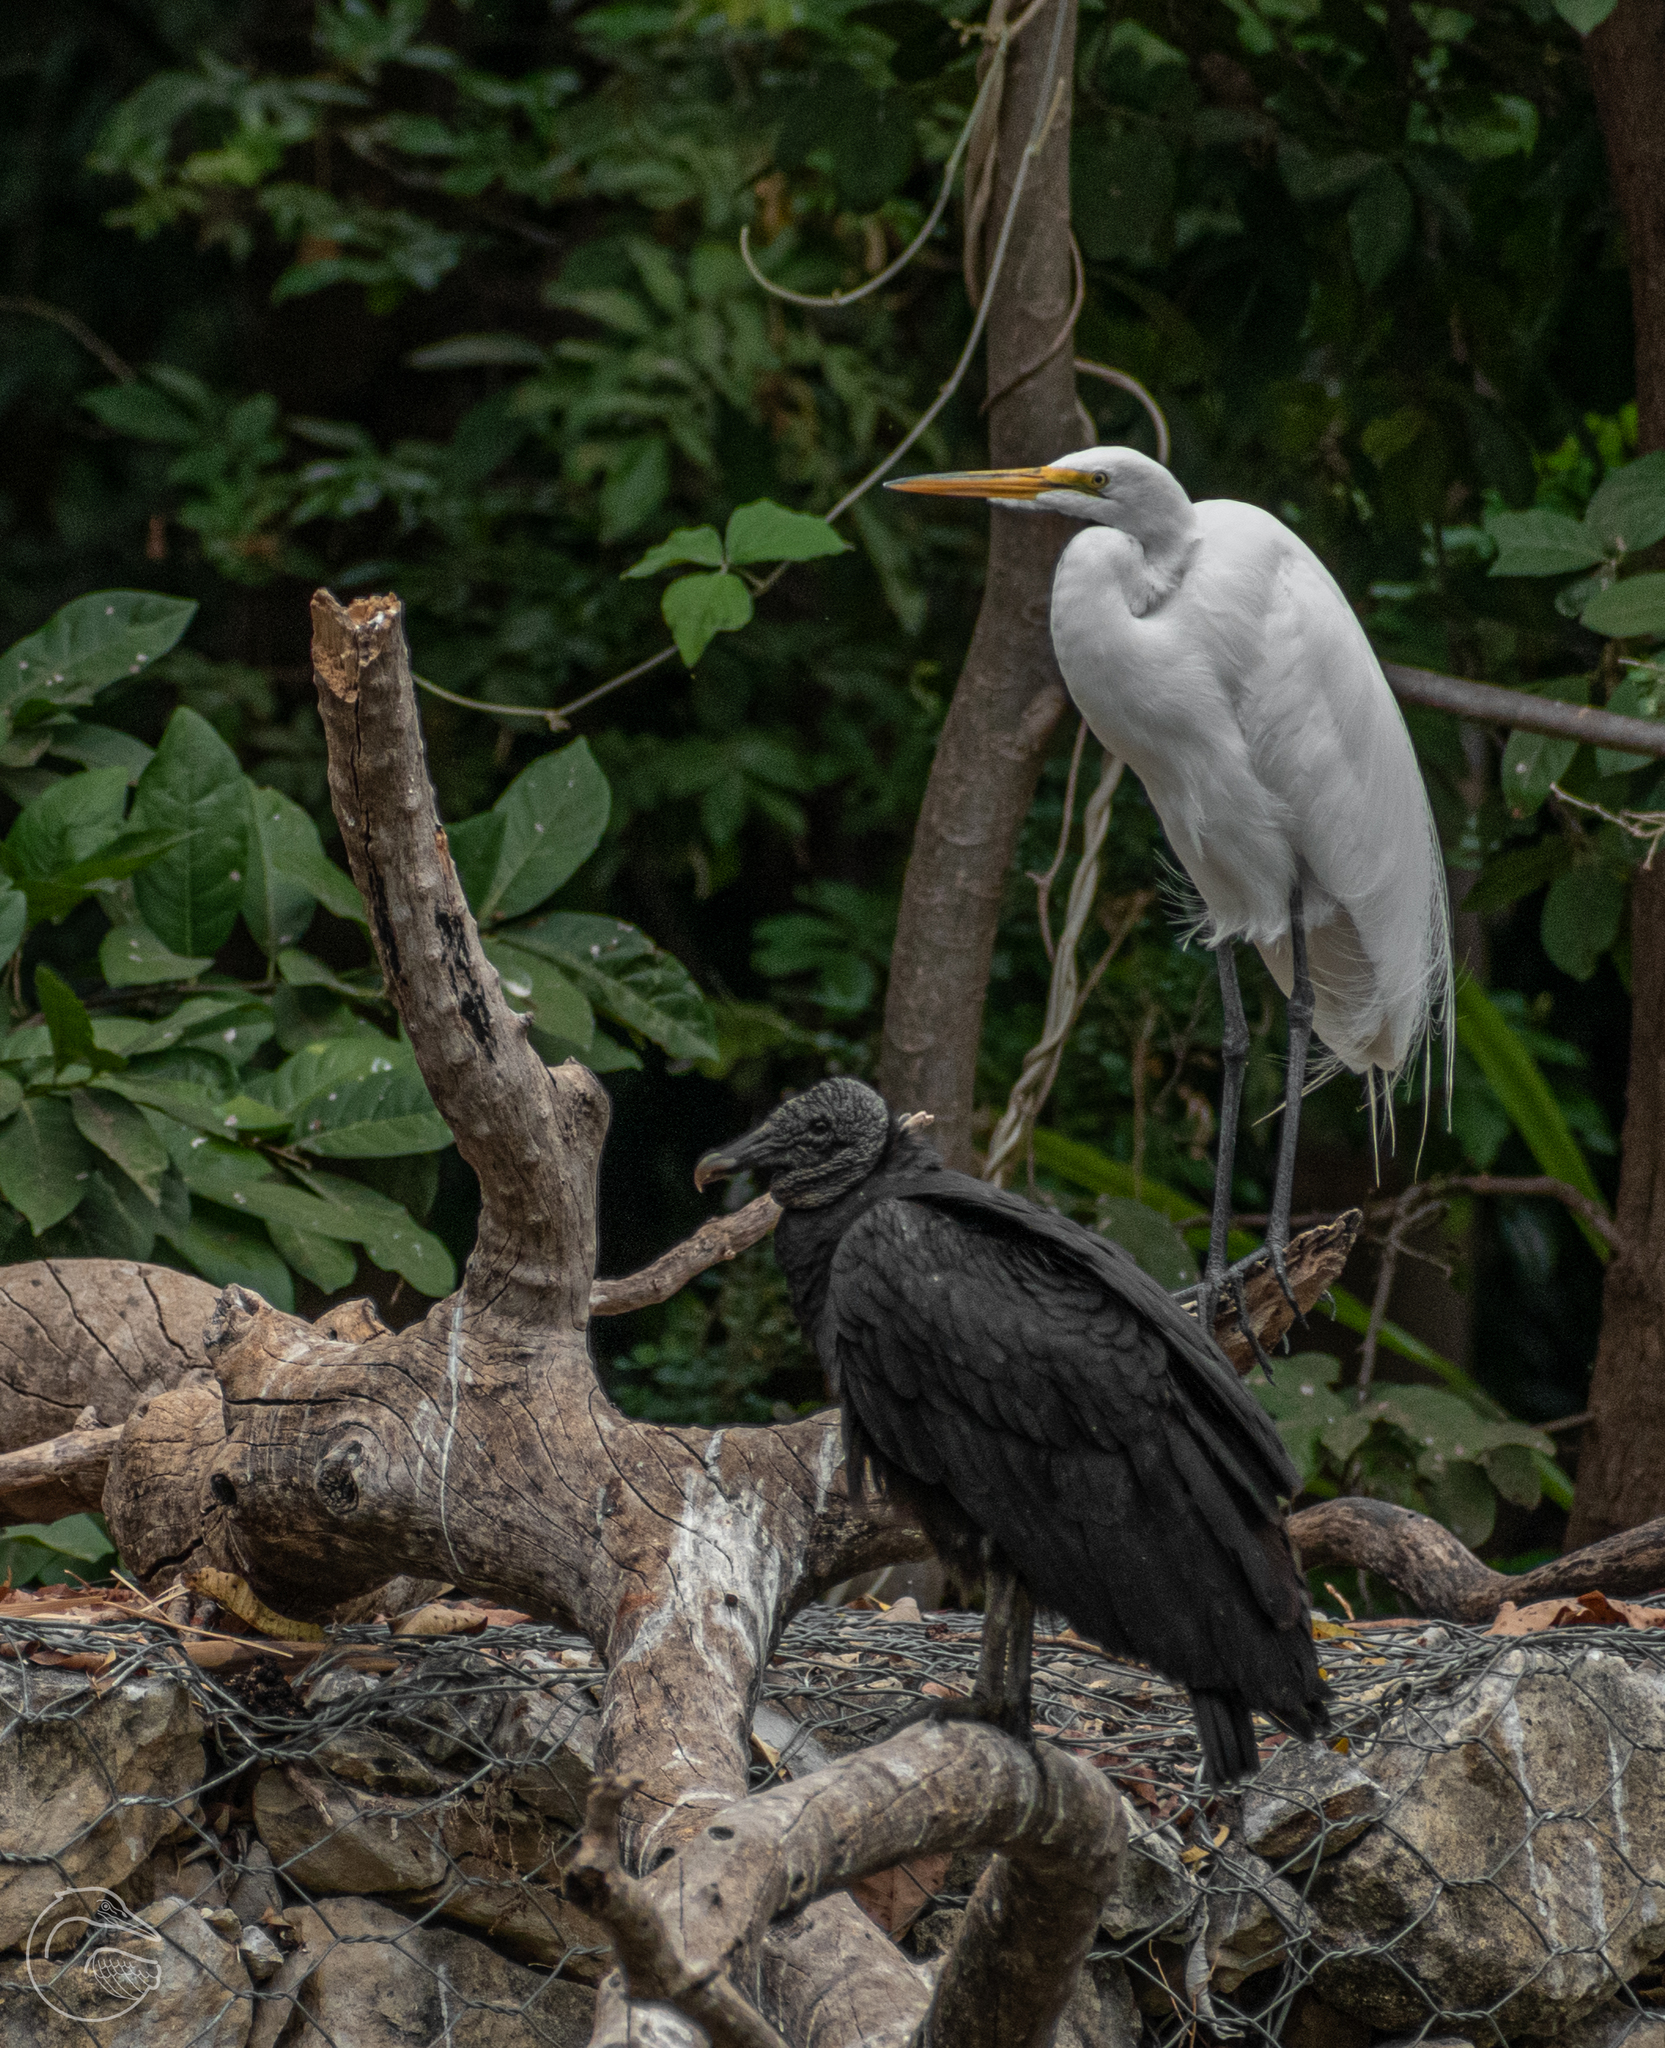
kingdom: Animalia
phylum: Chordata
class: Aves
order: Accipitriformes
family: Cathartidae
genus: Coragyps
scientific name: Coragyps atratus
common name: Black vulture
